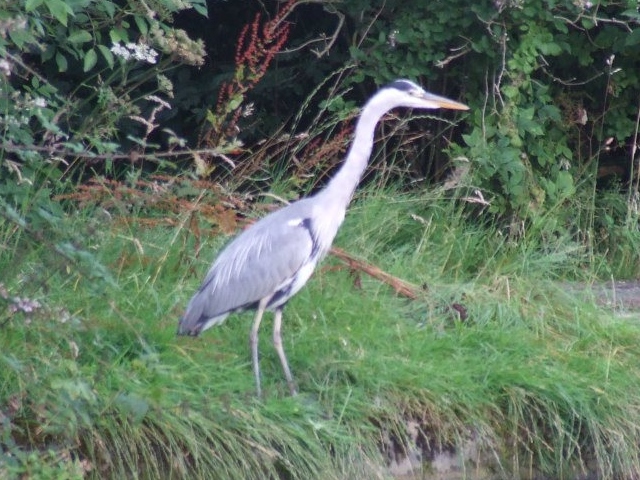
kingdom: Animalia
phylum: Chordata
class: Aves
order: Pelecaniformes
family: Ardeidae
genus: Ardea
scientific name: Ardea cinerea
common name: Grey heron
